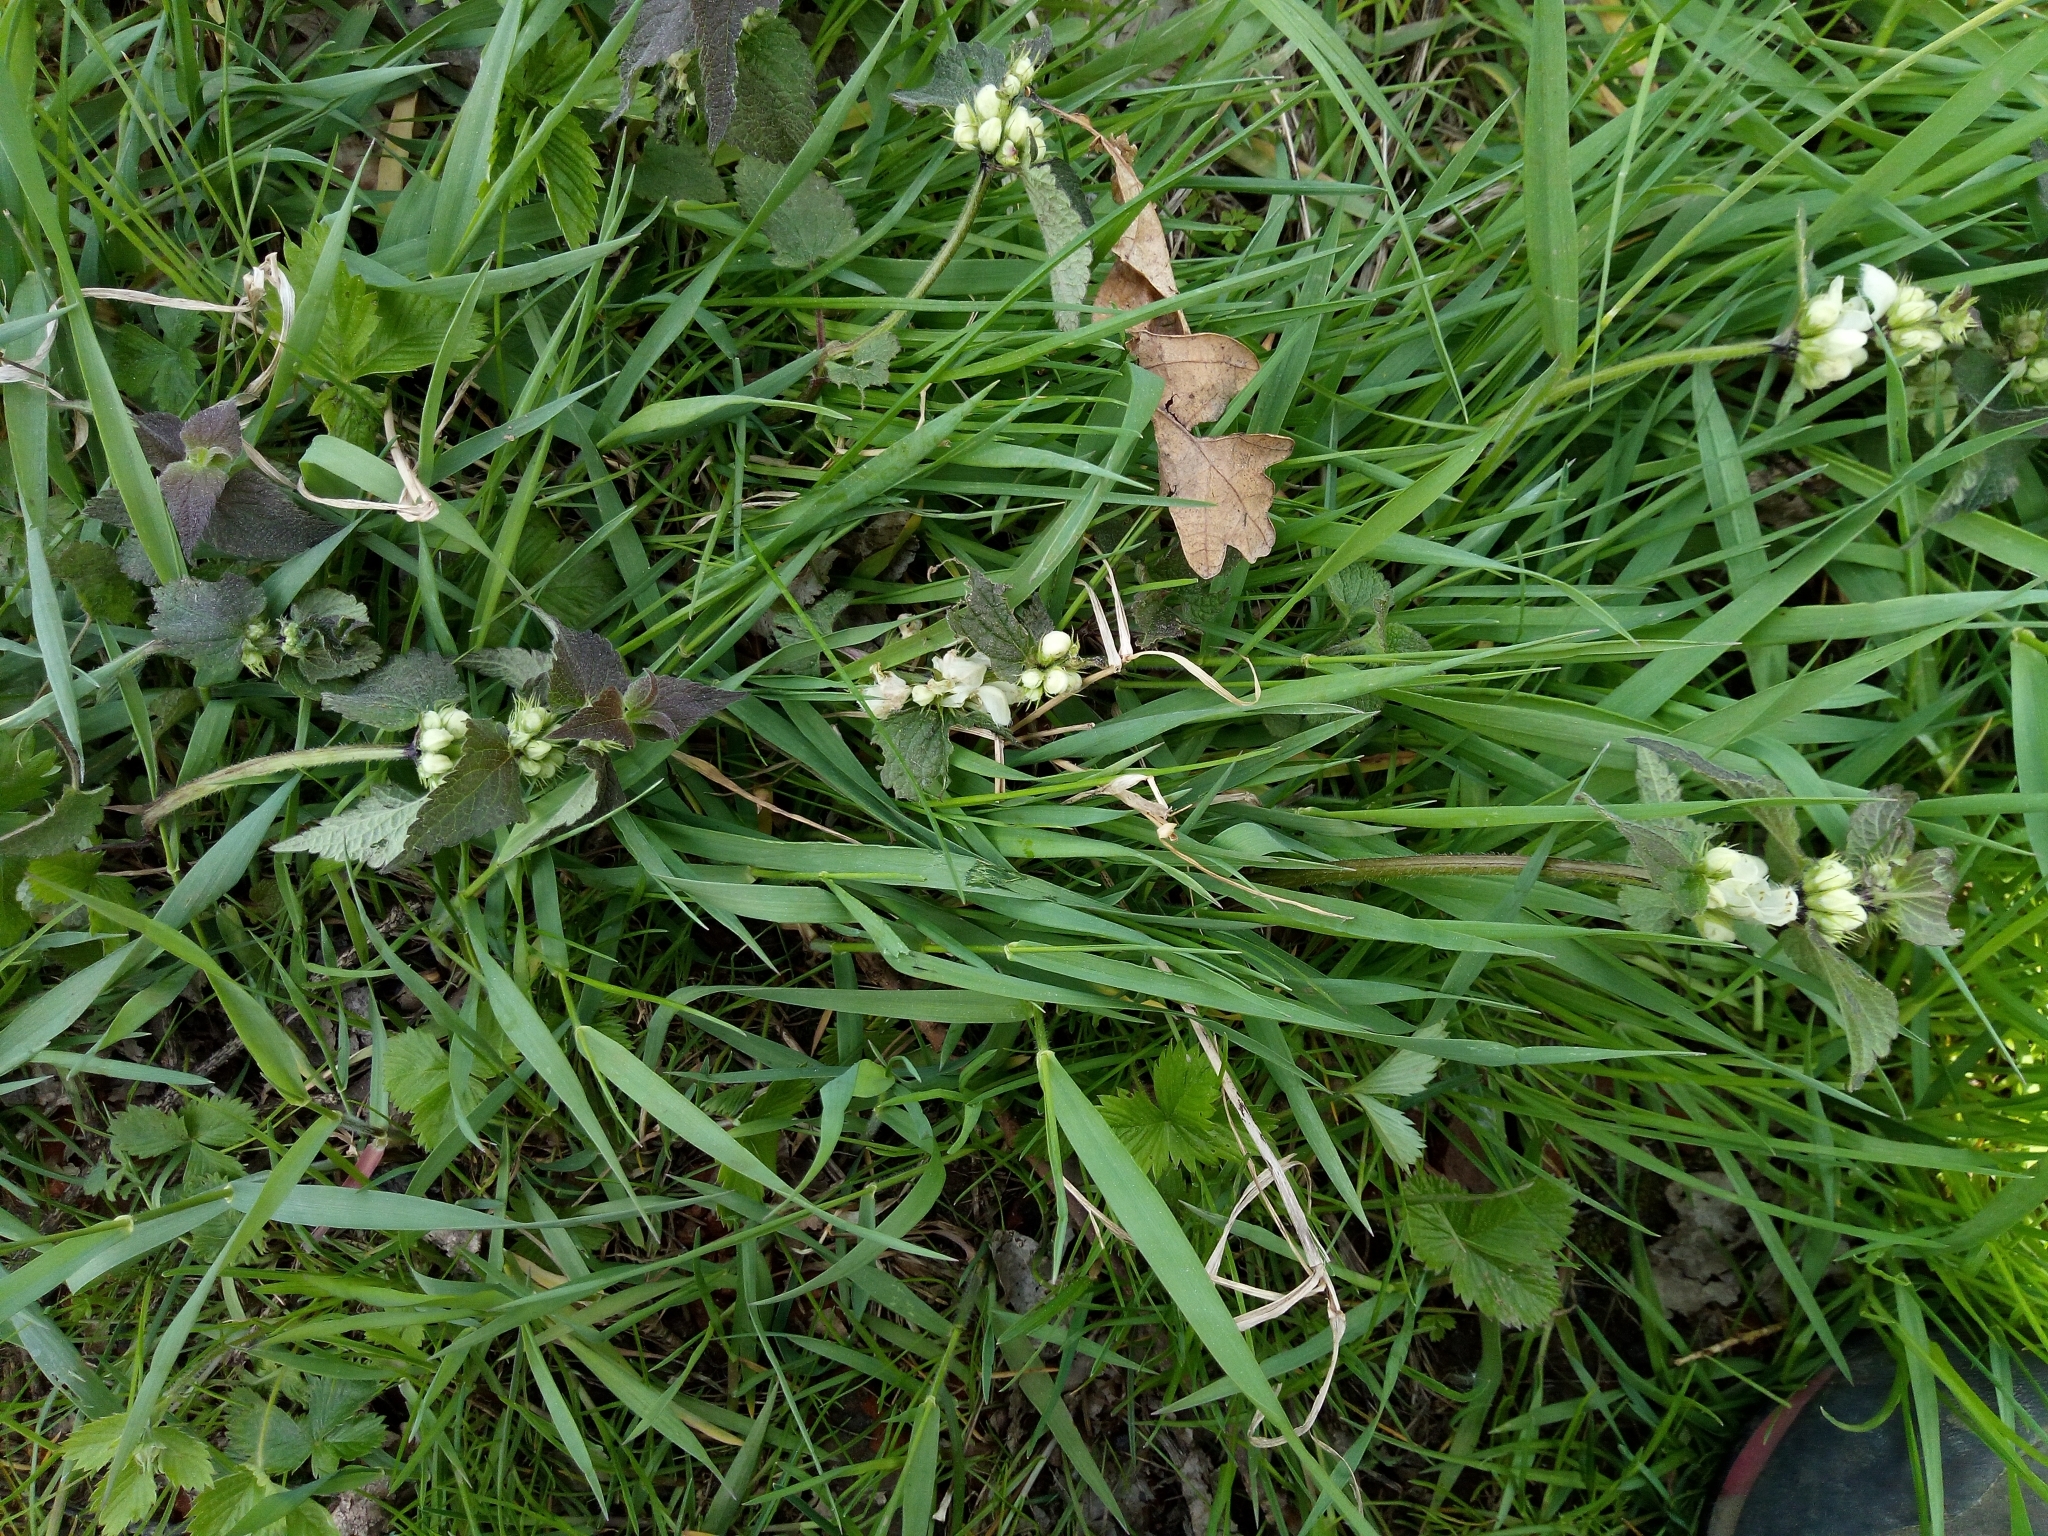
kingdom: Plantae
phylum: Tracheophyta
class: Magnoliopsida
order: Lamiales
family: Lamiaceae
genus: Lamium
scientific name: Lamium album
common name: White dead-nettle
